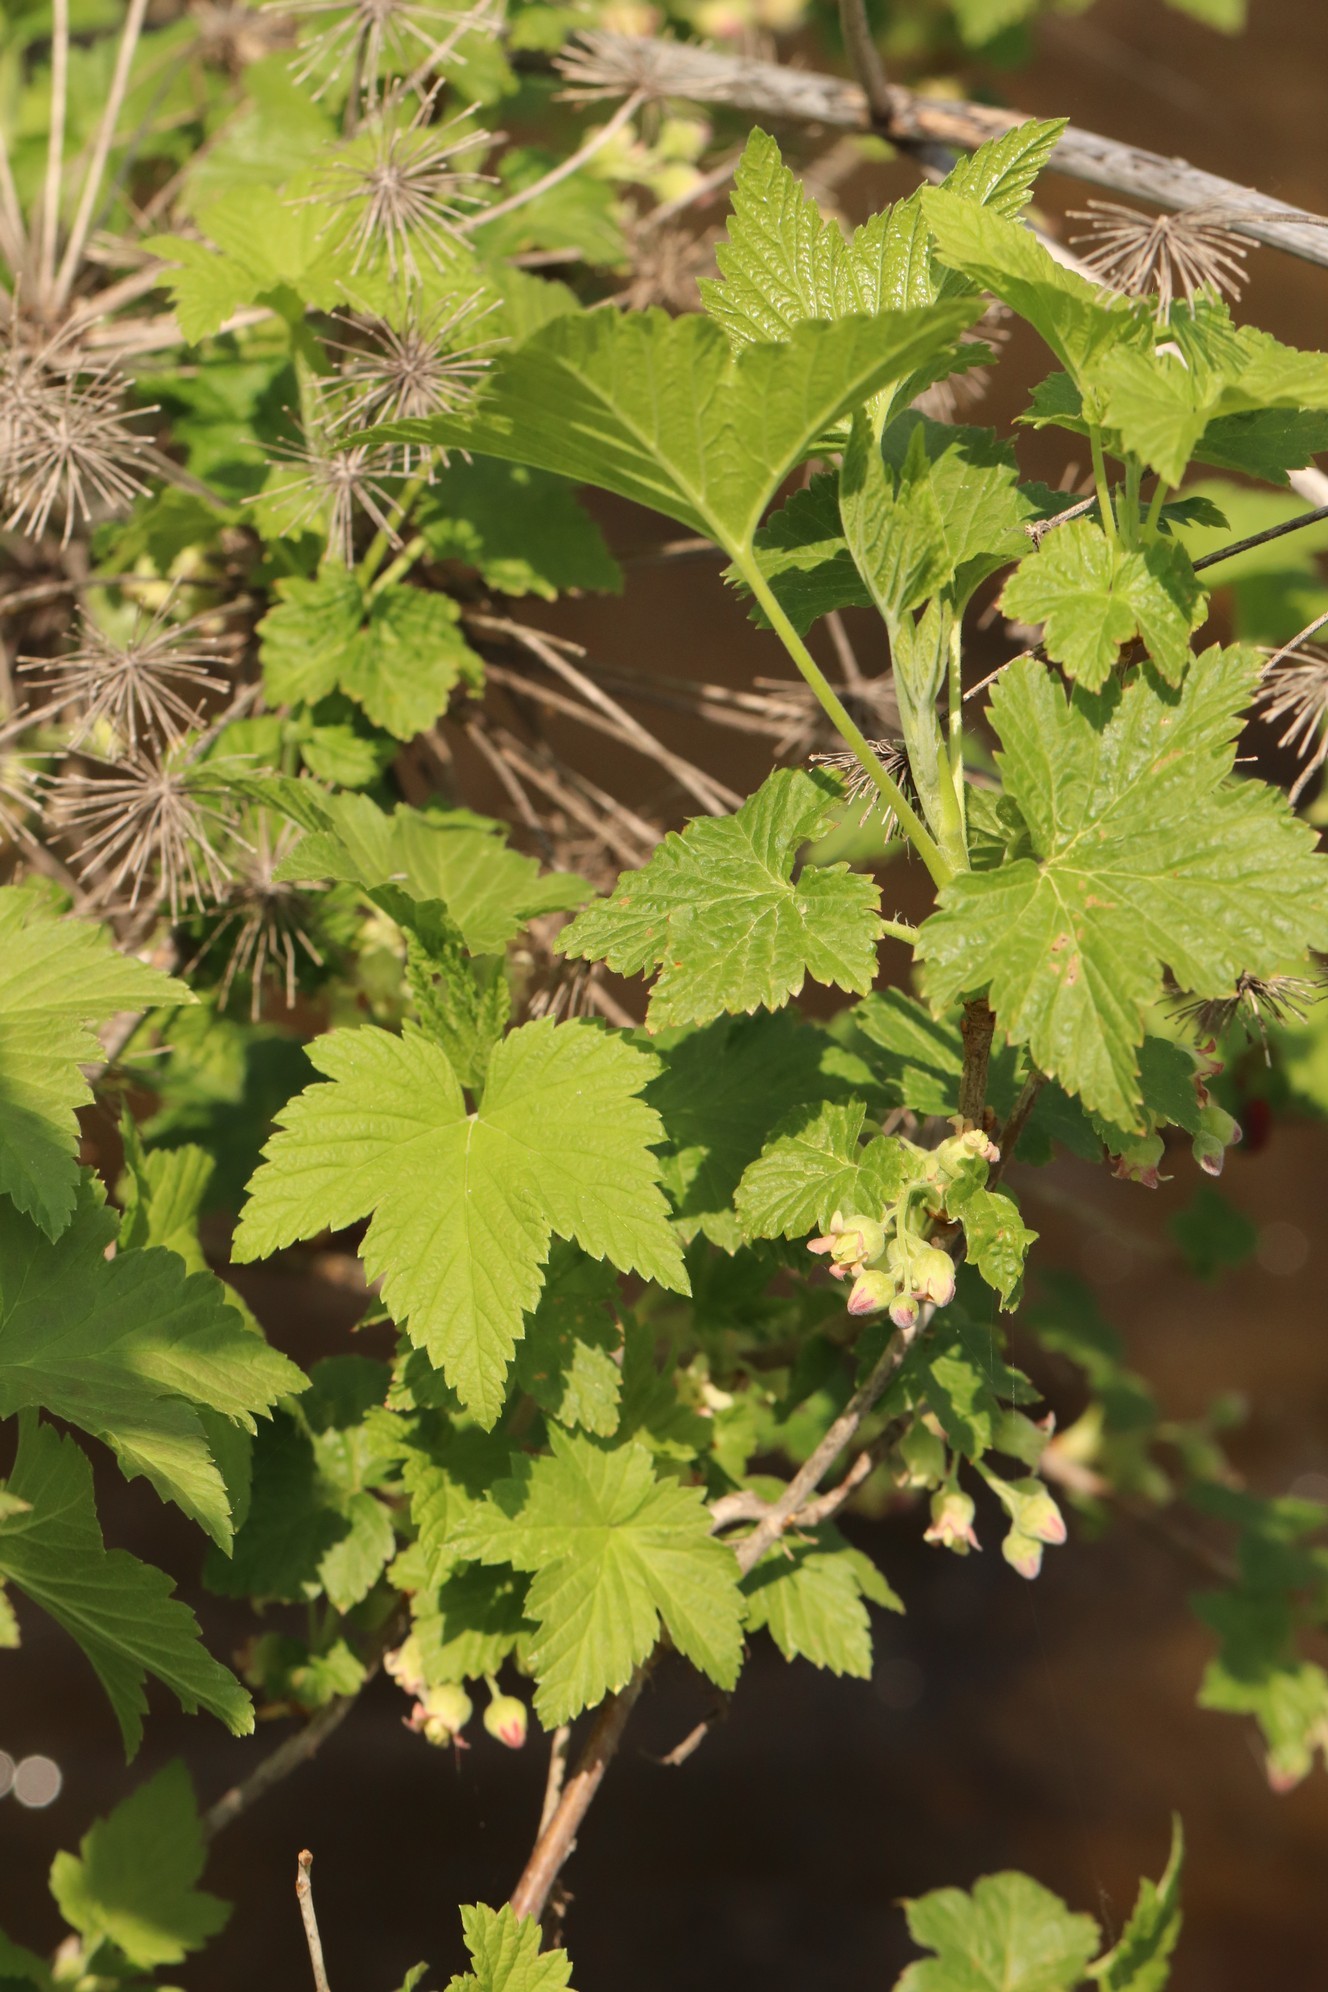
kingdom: Plantae
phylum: Tracheophyta
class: Magnoliopsida
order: Saxifragales
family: Grossulariaceae
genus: Ribes
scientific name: Ribes nigrum
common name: Black currant
